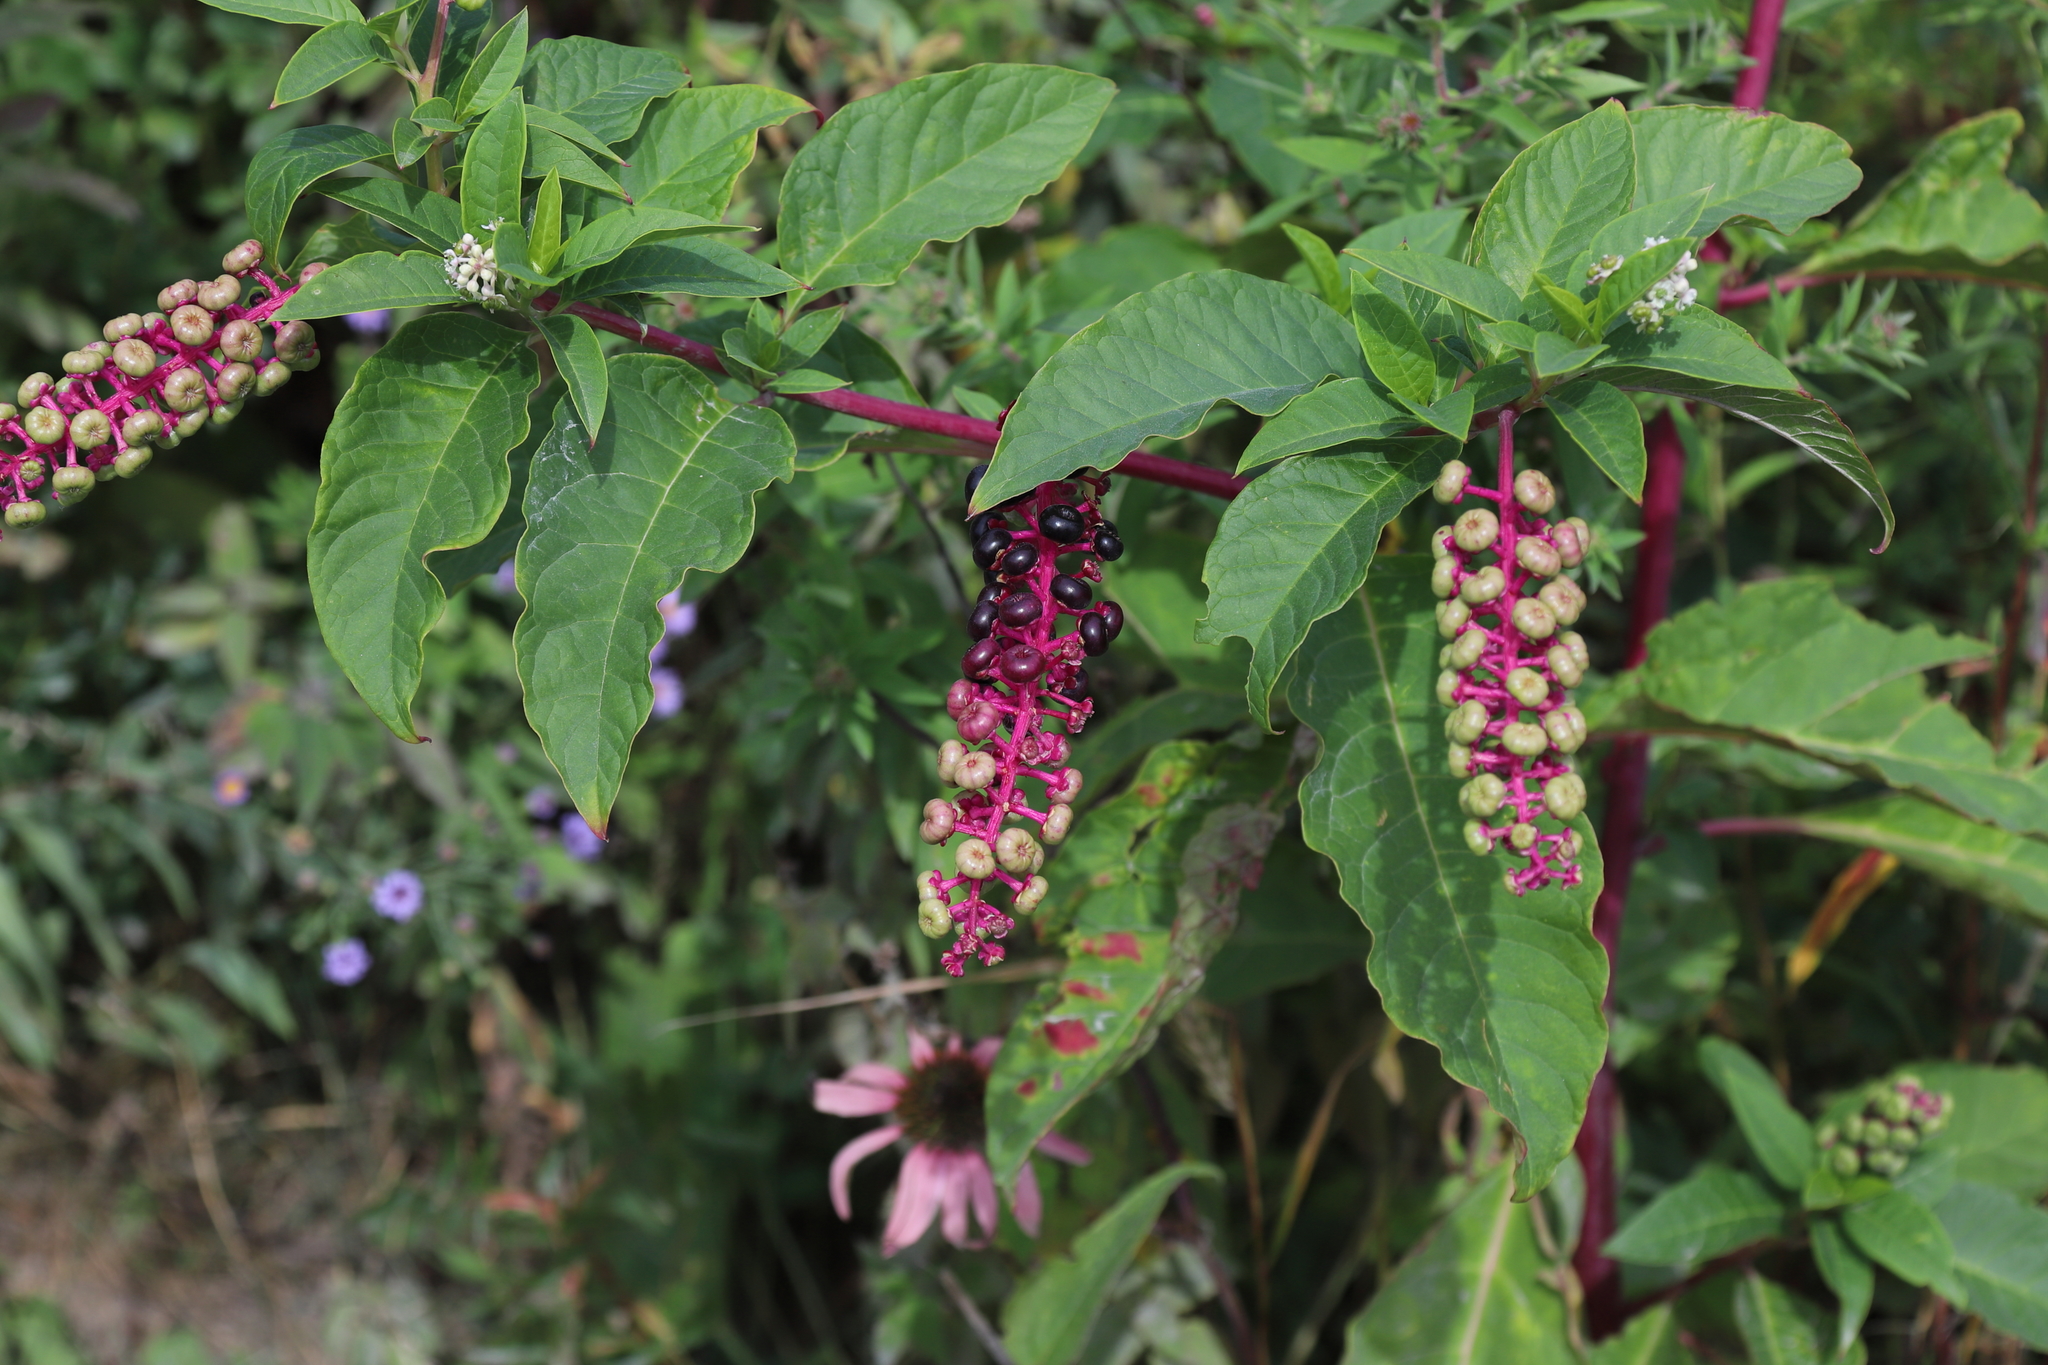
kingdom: Plantae
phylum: Tracheophyta
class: Magnoliopsida
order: Caryophyllales
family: Phytolaccaceae
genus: Phytolacca
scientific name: Phytolacca americana
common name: American pokeweed
